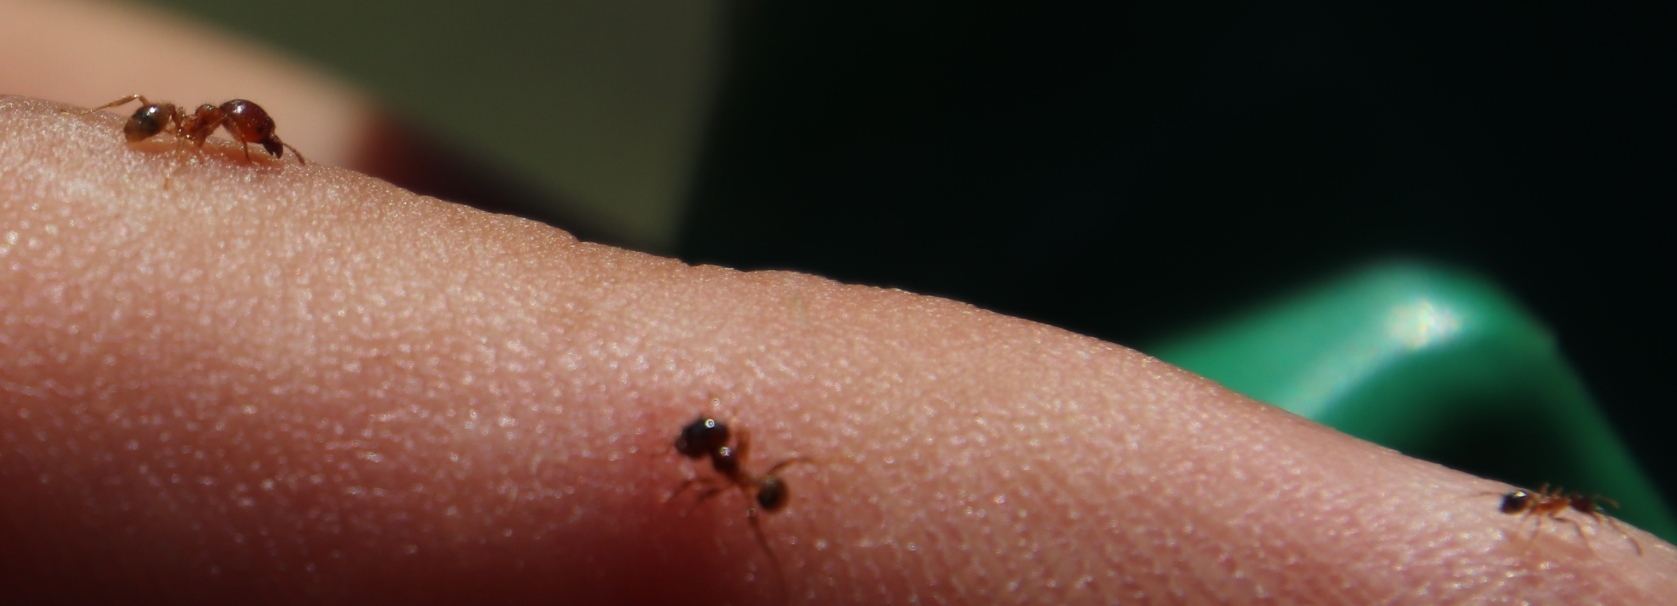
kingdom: Animalia
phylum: Arthropoda
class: Insecta
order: Hymenoptera
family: Formicidae
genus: Pheidole
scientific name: Pheidole megacephala
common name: Bigheaded ant
